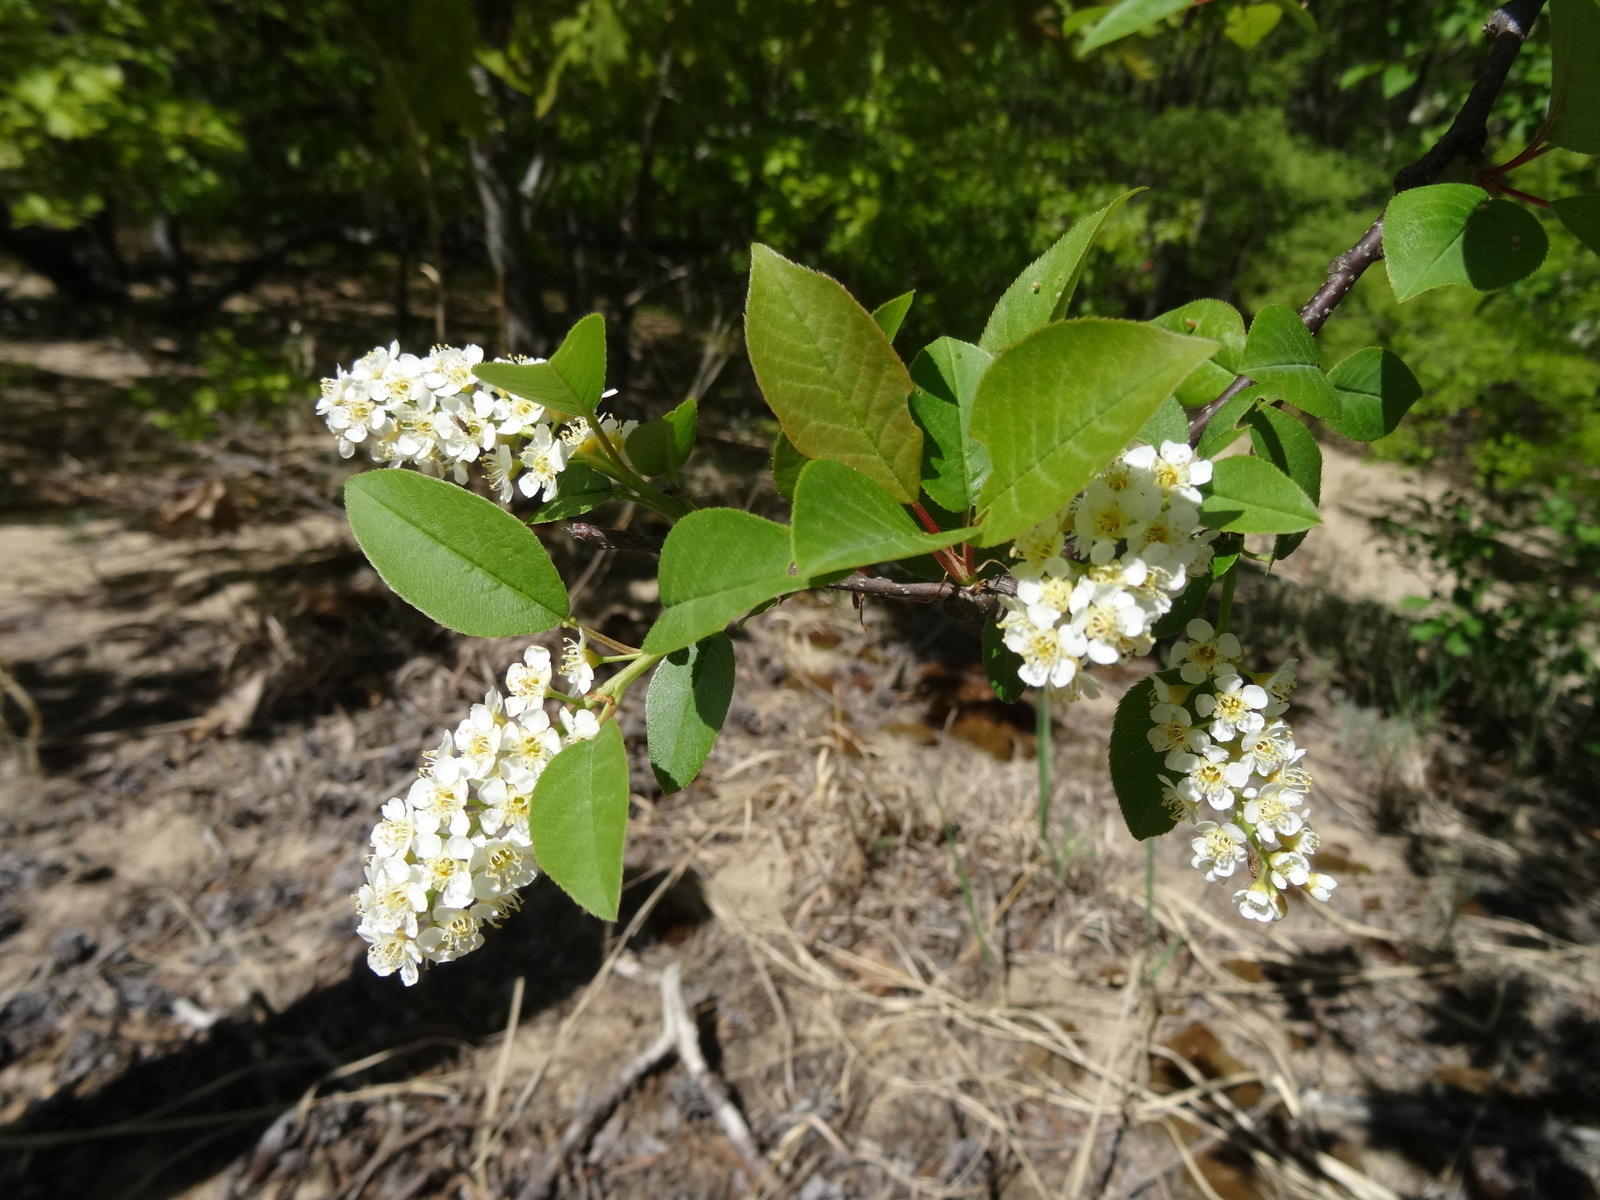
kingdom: Plantae
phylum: Tracheophyta
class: Magnoliopsida
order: Rosales
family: Rosaceae
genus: Prunus
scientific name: Prunus virginiana
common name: Chokecherry
